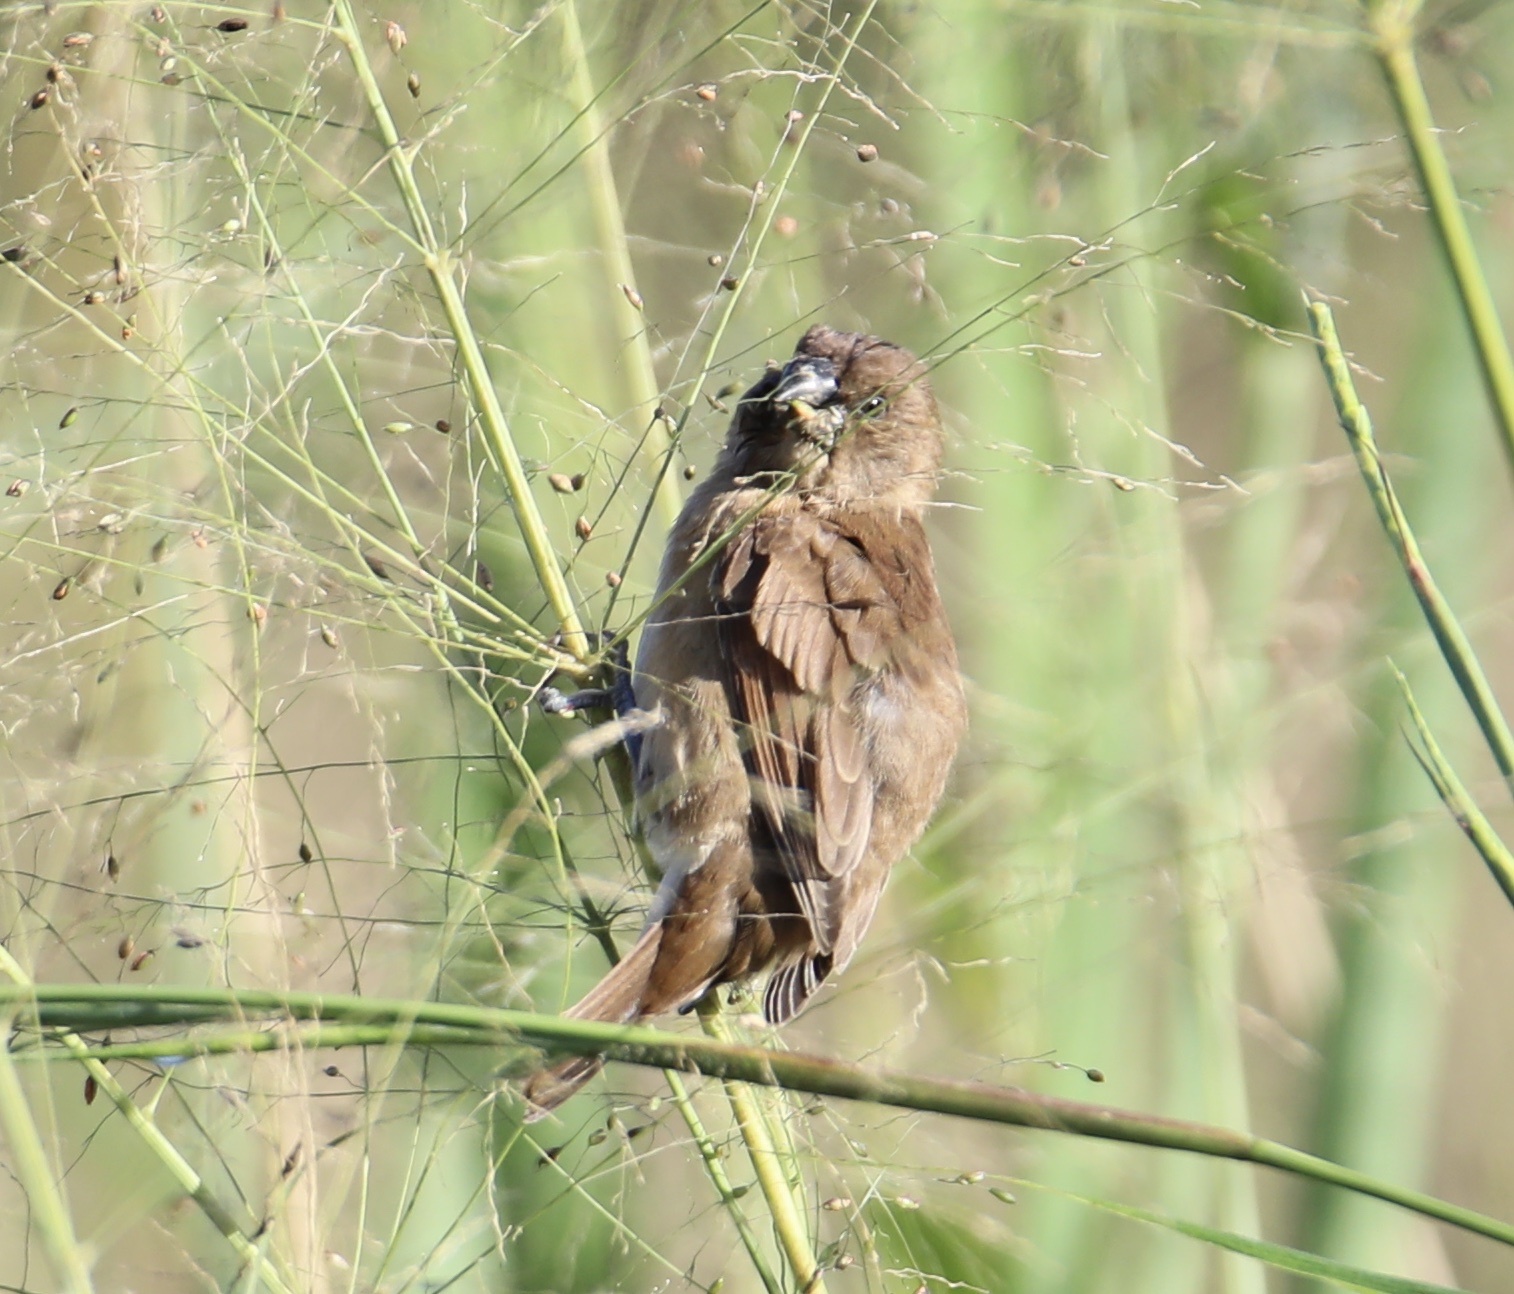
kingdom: Animalia
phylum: Chordata
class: Aves
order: Passeriformes
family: Estrildidae
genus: Lonchura
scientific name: Lonchura punctulata
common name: Scaly-breasted munia
